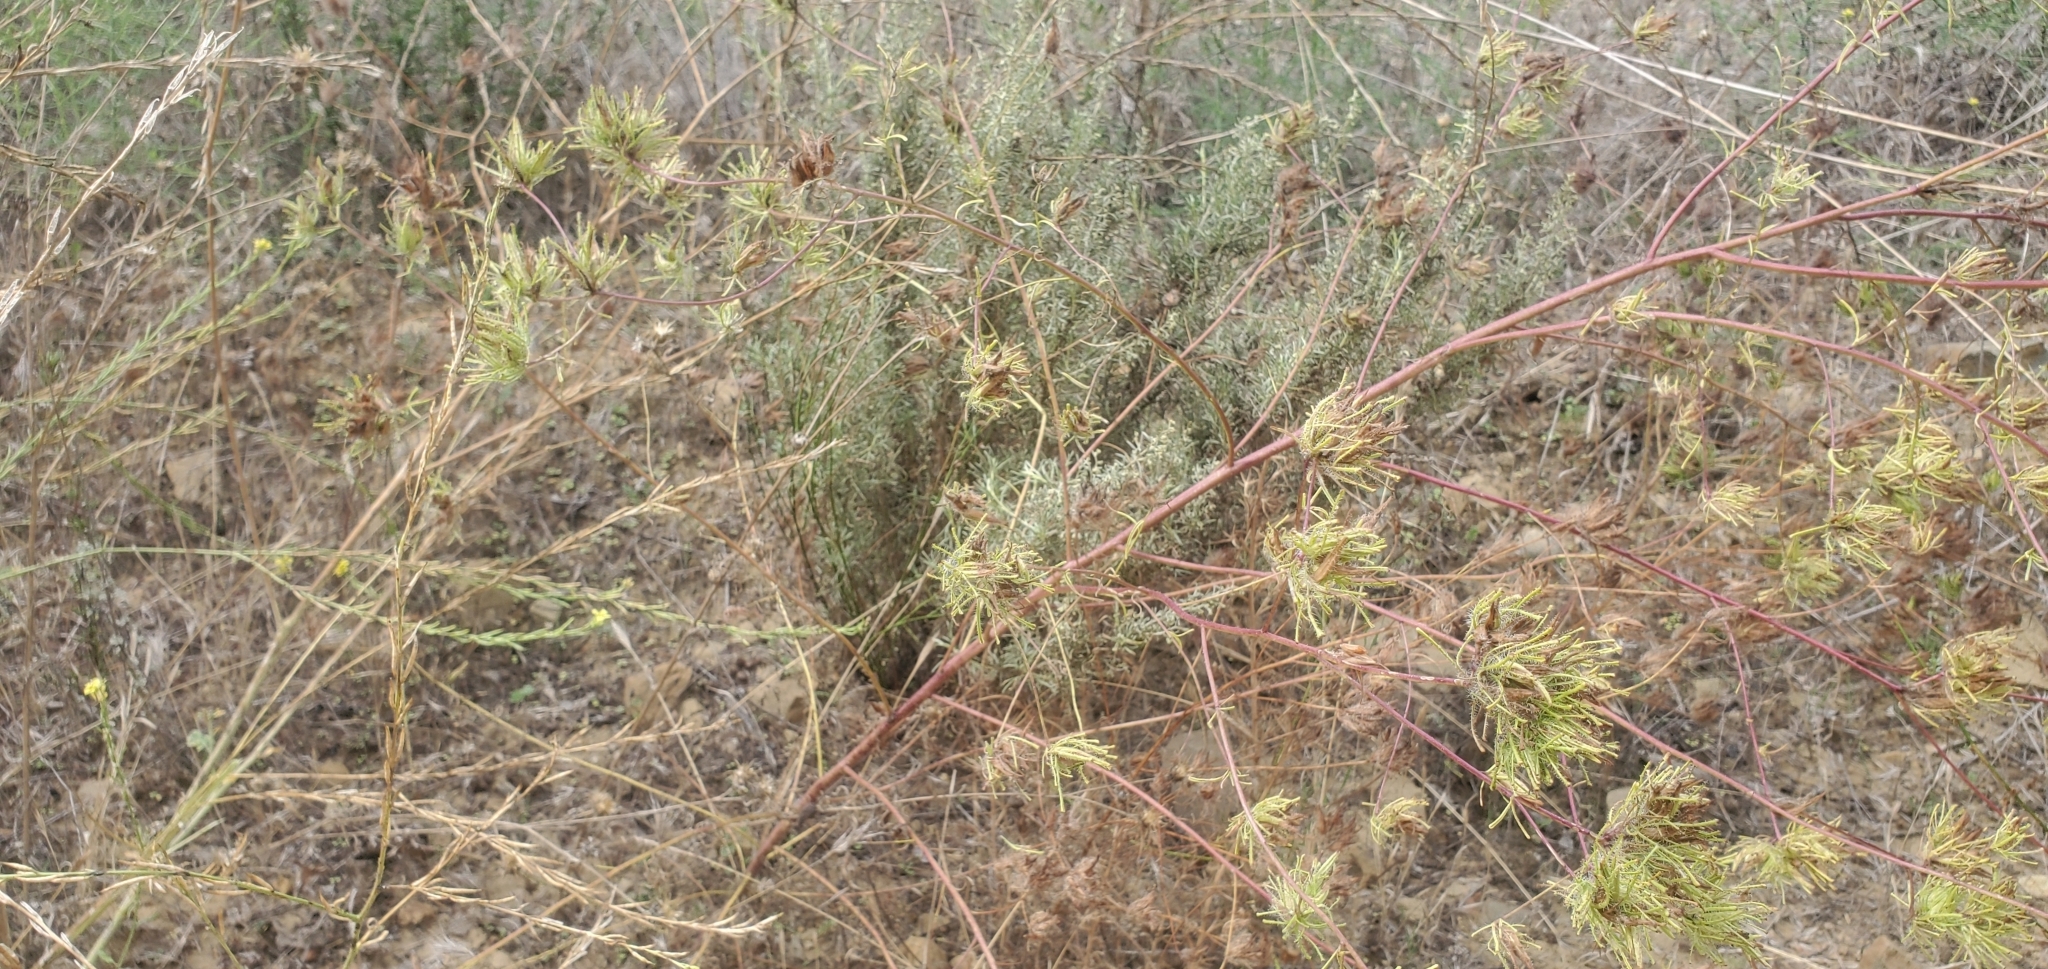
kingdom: Plantae
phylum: Tracheophyta
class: Magnoliopsida
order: Lamiales
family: Orobanchaceae
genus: Cordylanthus
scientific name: Cordylanthus rigidus
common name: Stiff-branch bird's-beak
